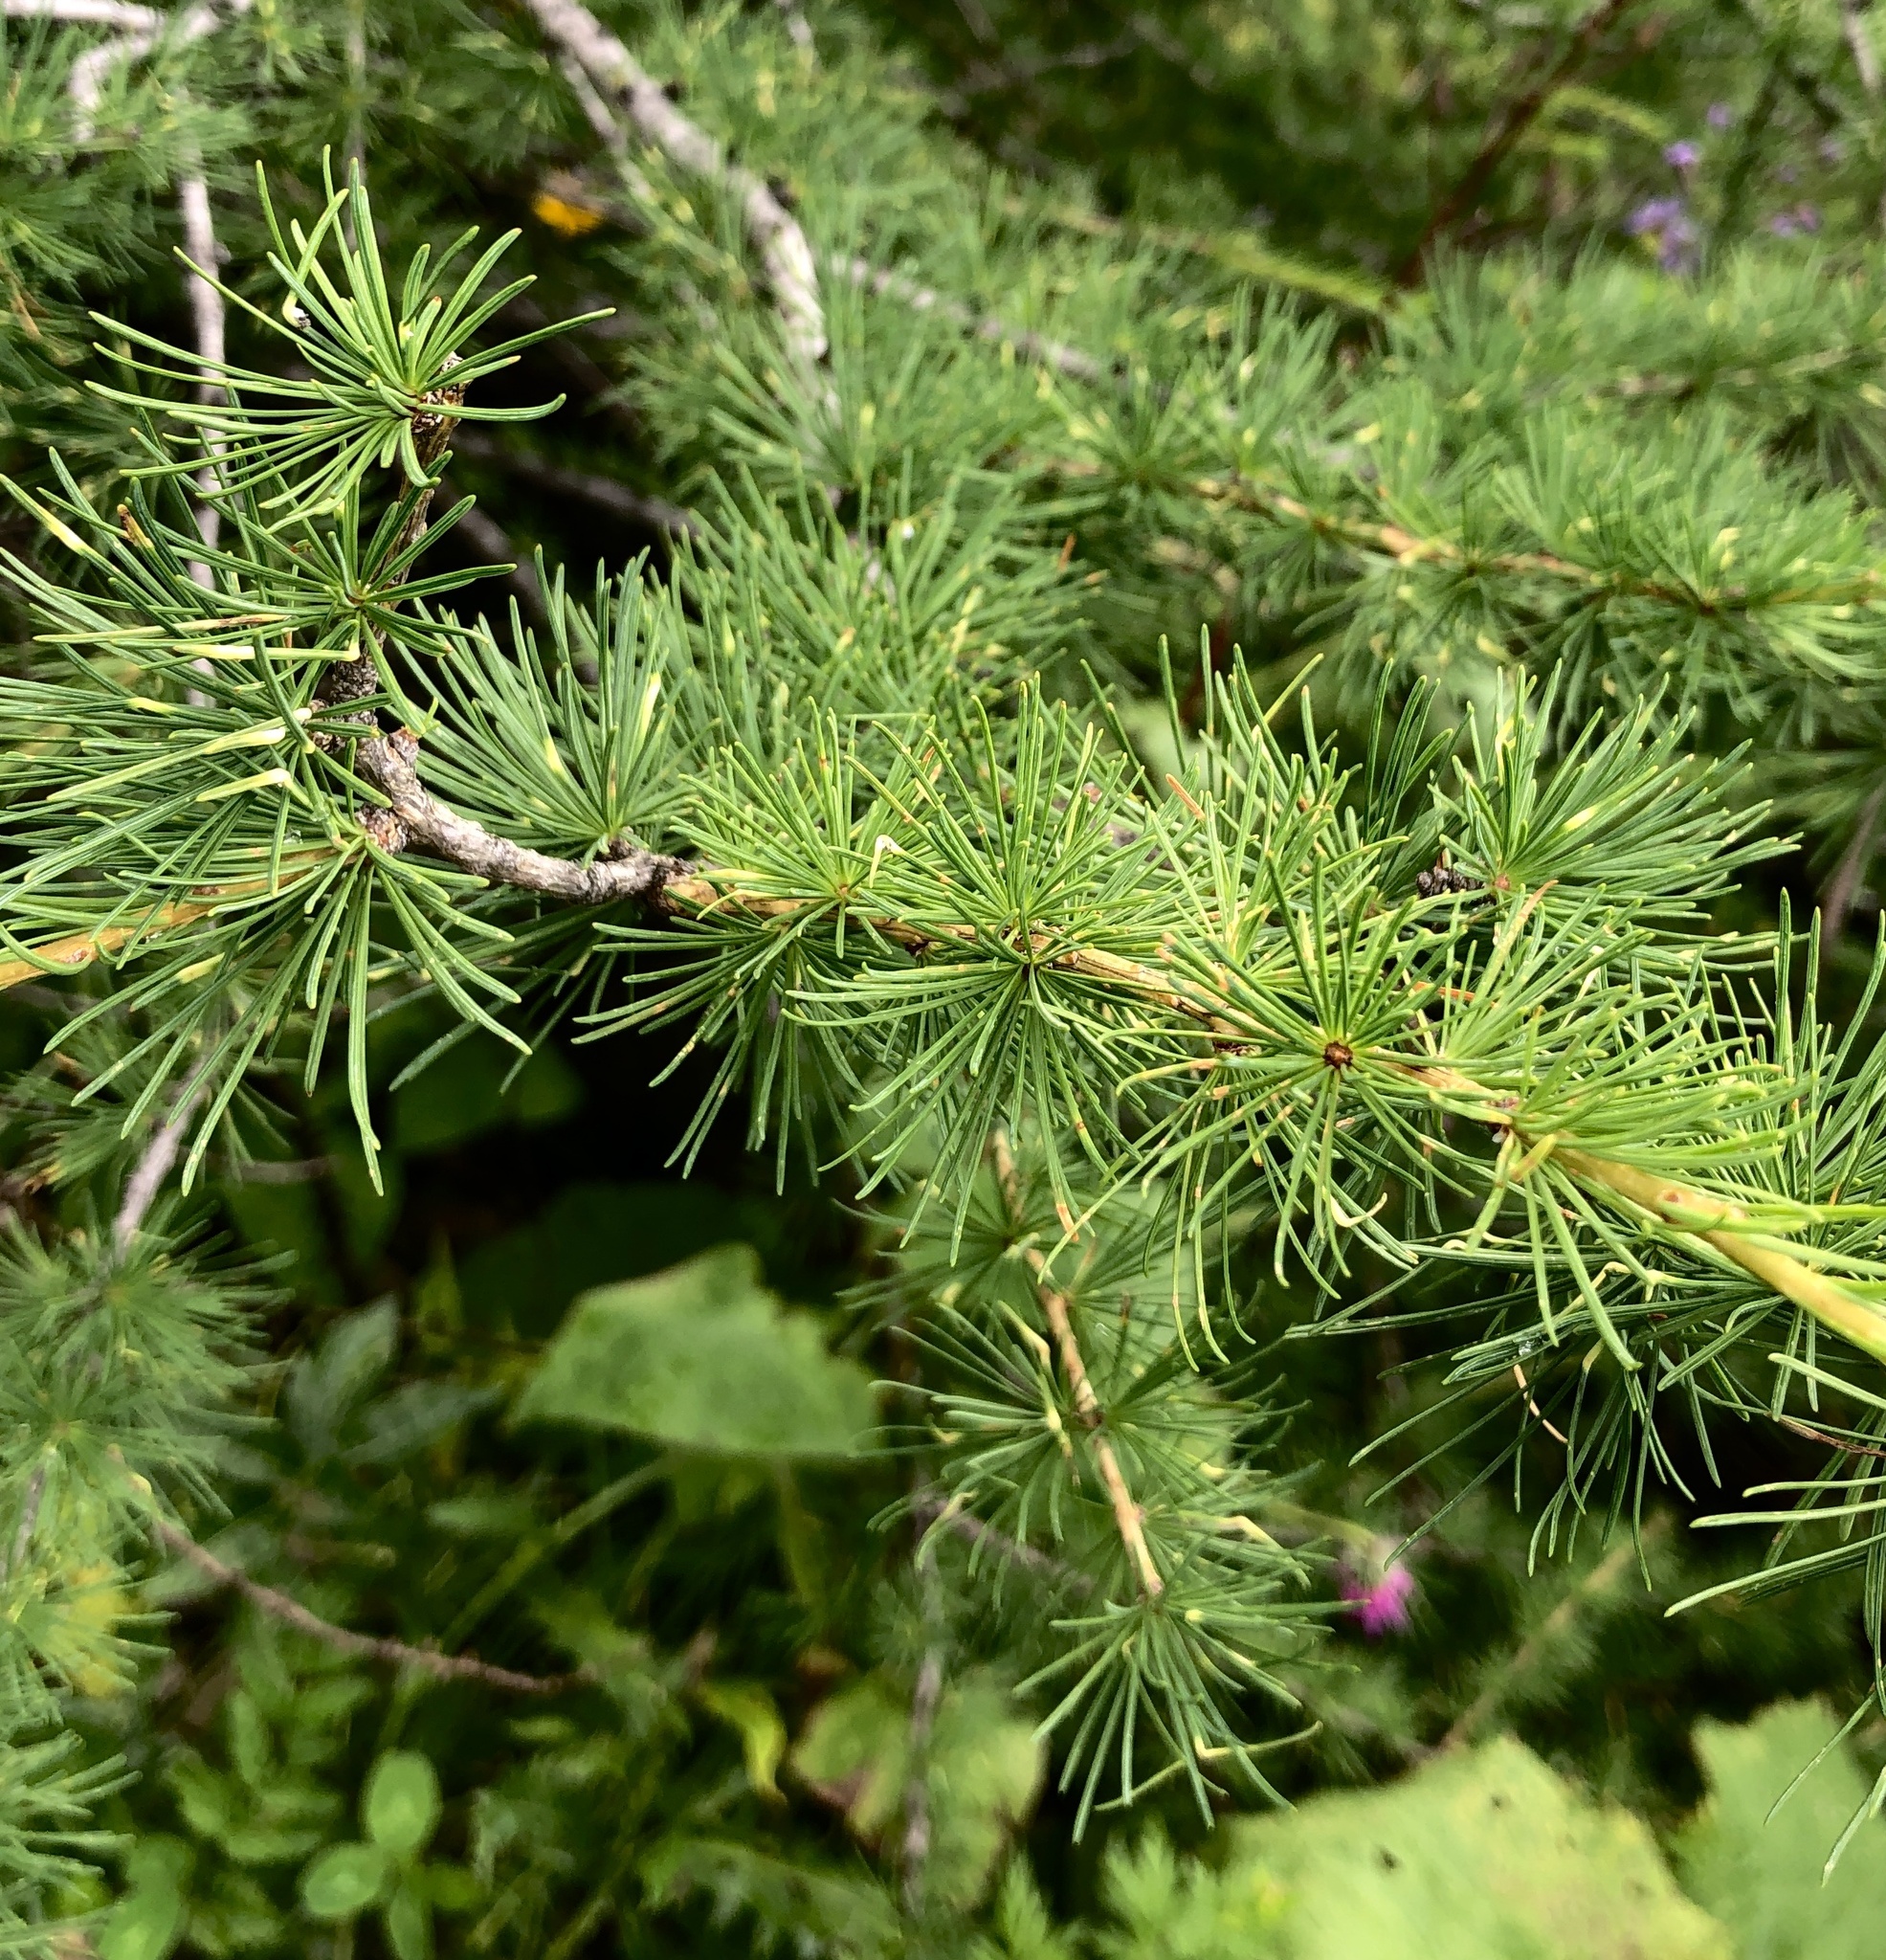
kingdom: Plantae
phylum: Tracheophyta
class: Pinopsida
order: Pinales
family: Pinaceae
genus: Larix
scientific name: Larix decidua
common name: European larch
